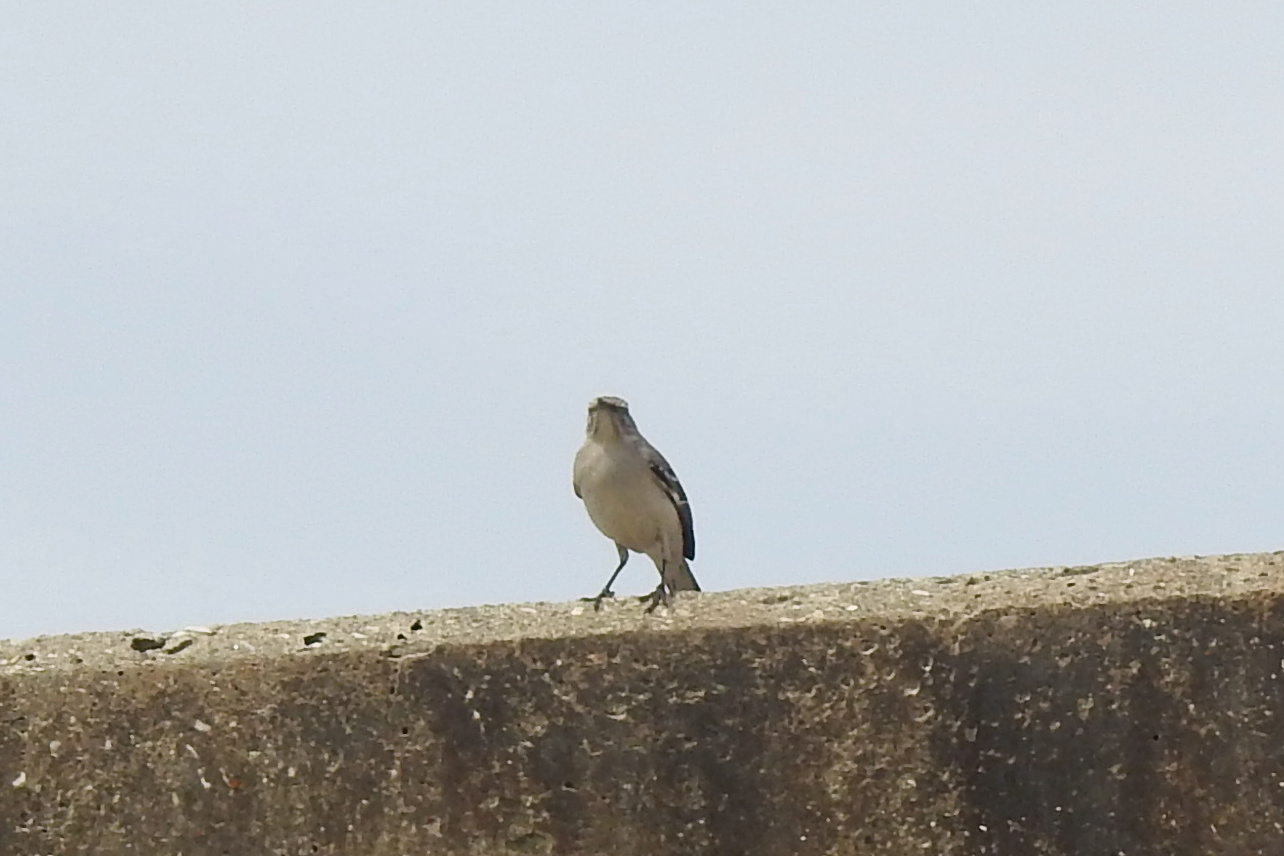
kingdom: Animalia
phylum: Chordata
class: Aves
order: Passeriformes
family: Mimidae
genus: Mimus
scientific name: Mimus polyglottos
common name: Northern mockingbird
